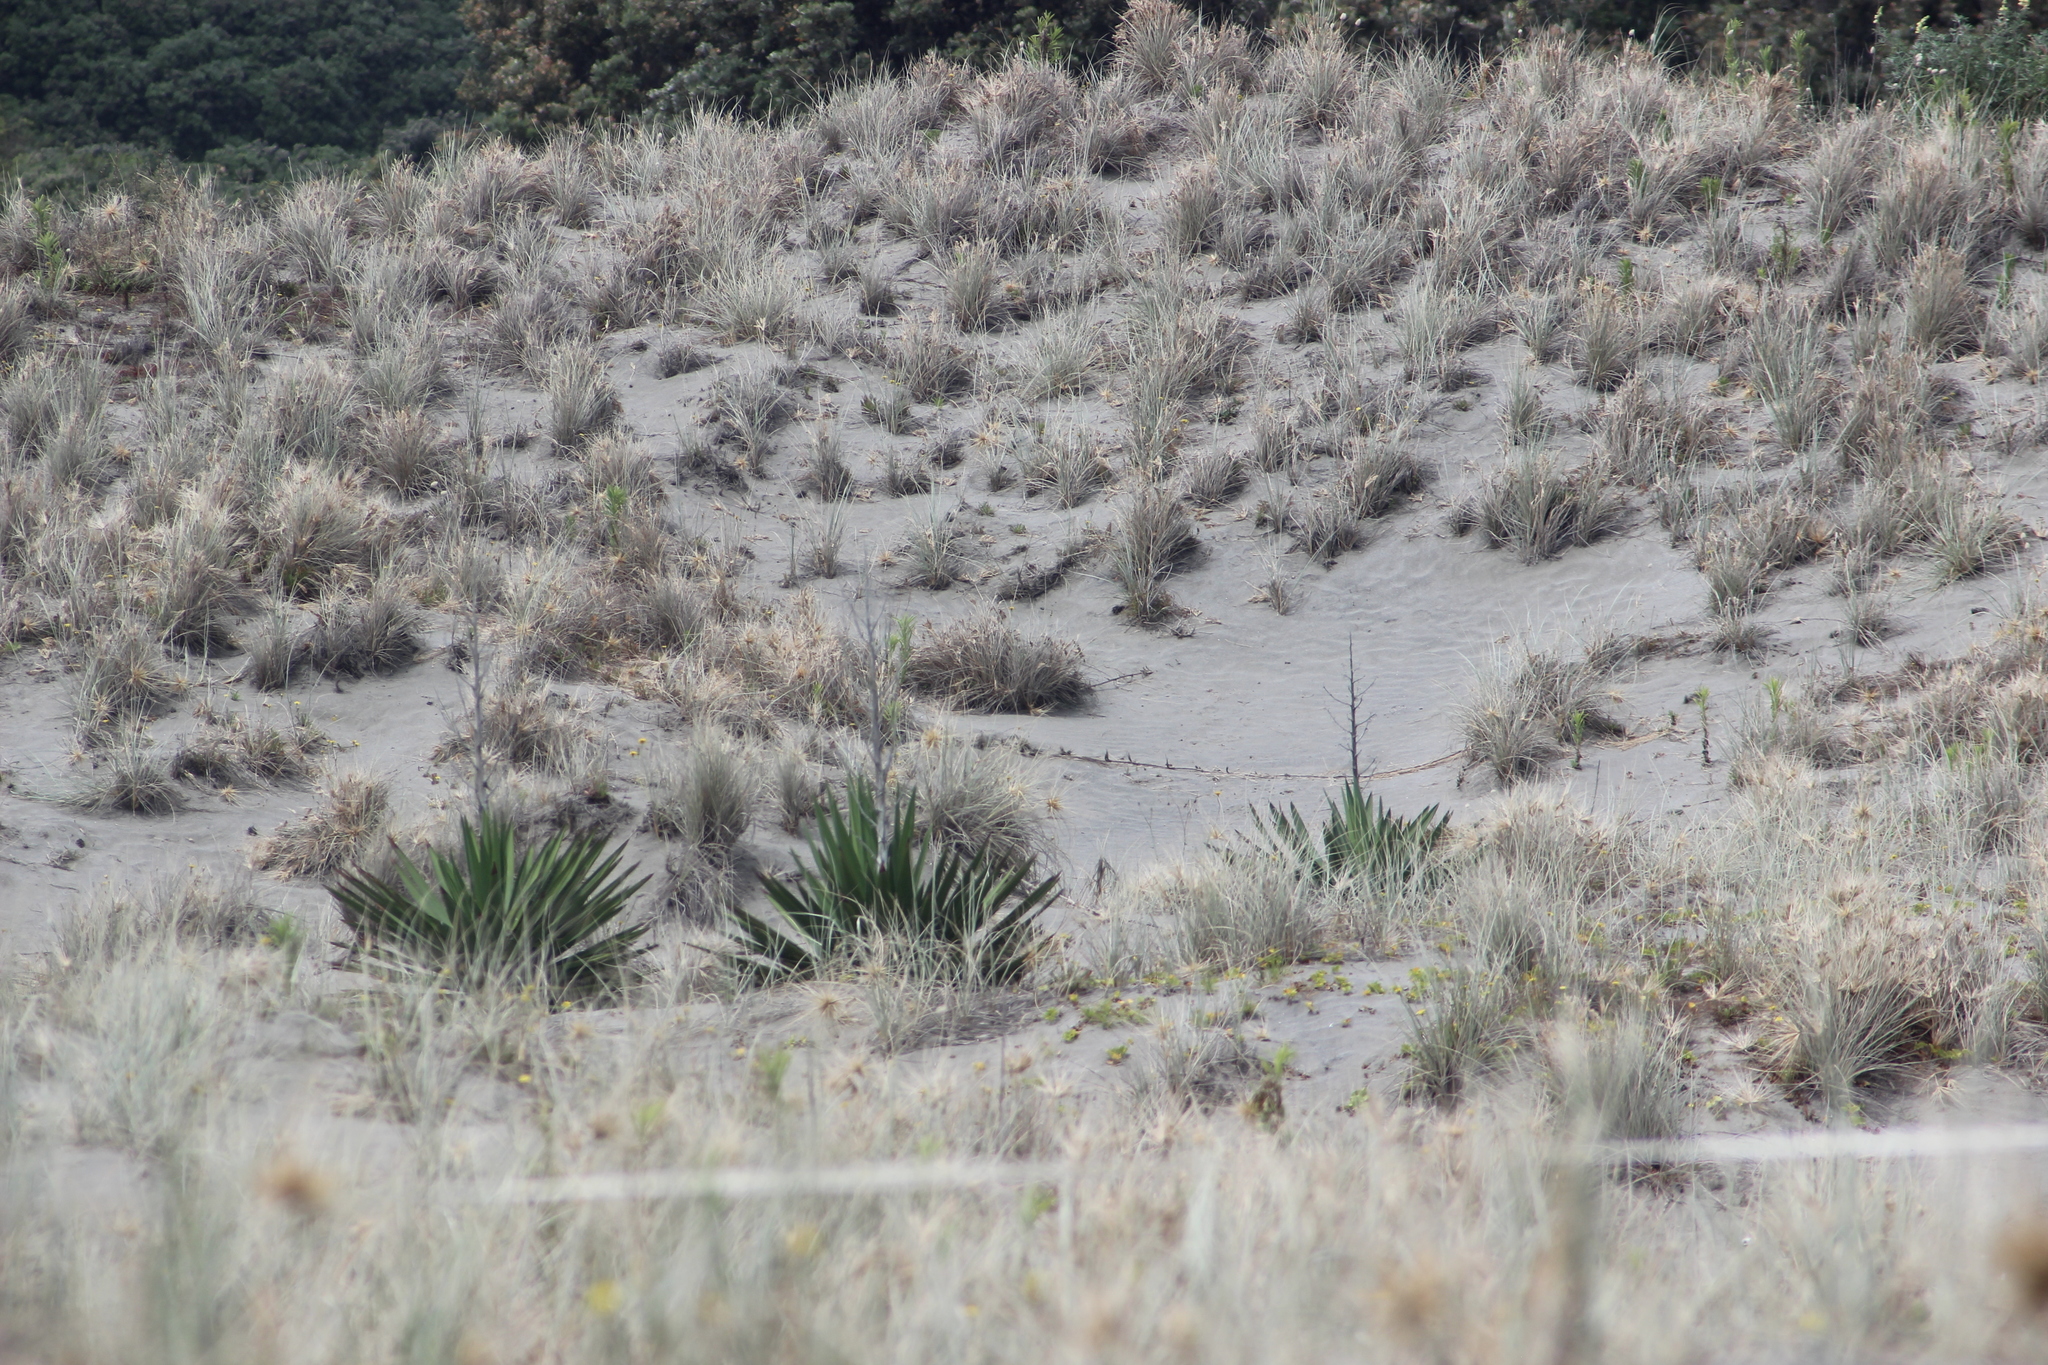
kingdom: Plantae
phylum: Tracheophyta
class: Liliopsida
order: Asparagales
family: Asparagaceae
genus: Yucca
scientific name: Yucca gloriosa
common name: Spanish-dagger
